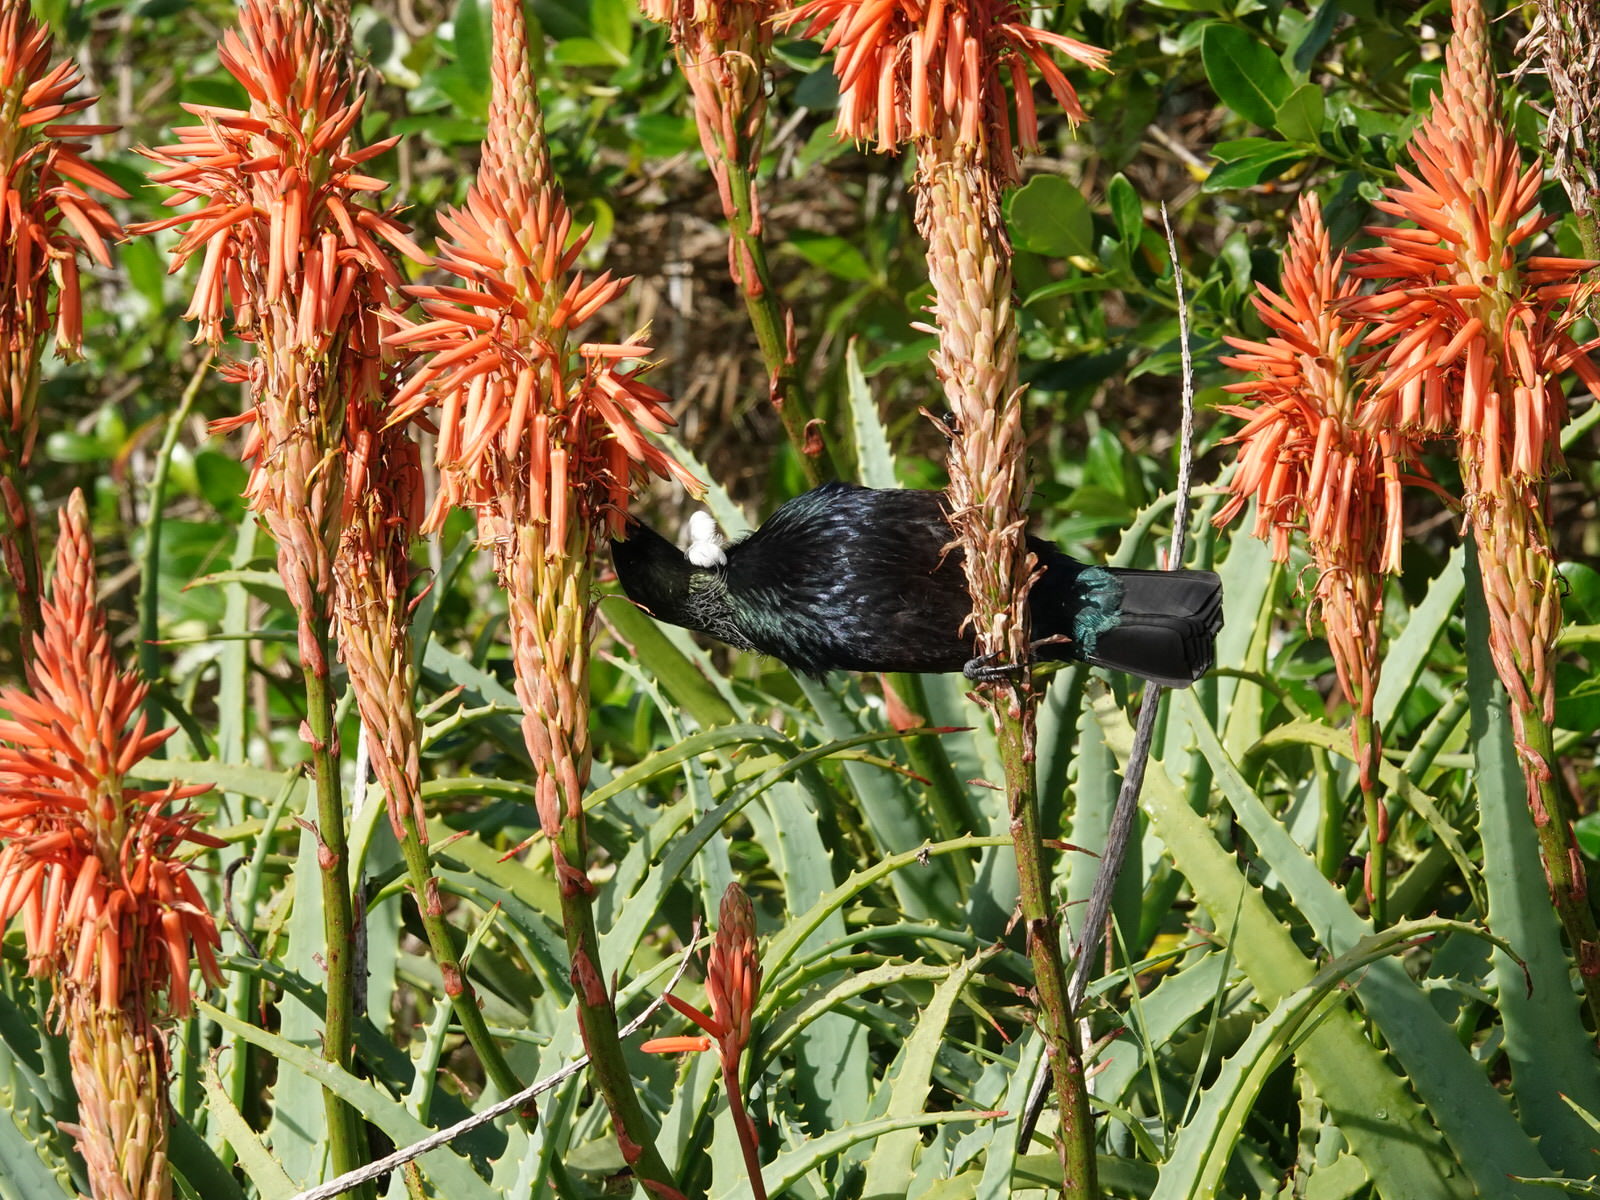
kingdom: Animalia
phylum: Chordata
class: Aves
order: Passeriformes
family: Meliphagidae
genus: Prosthemadera
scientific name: Prosthemadera novaeseelandiae
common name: Tui
